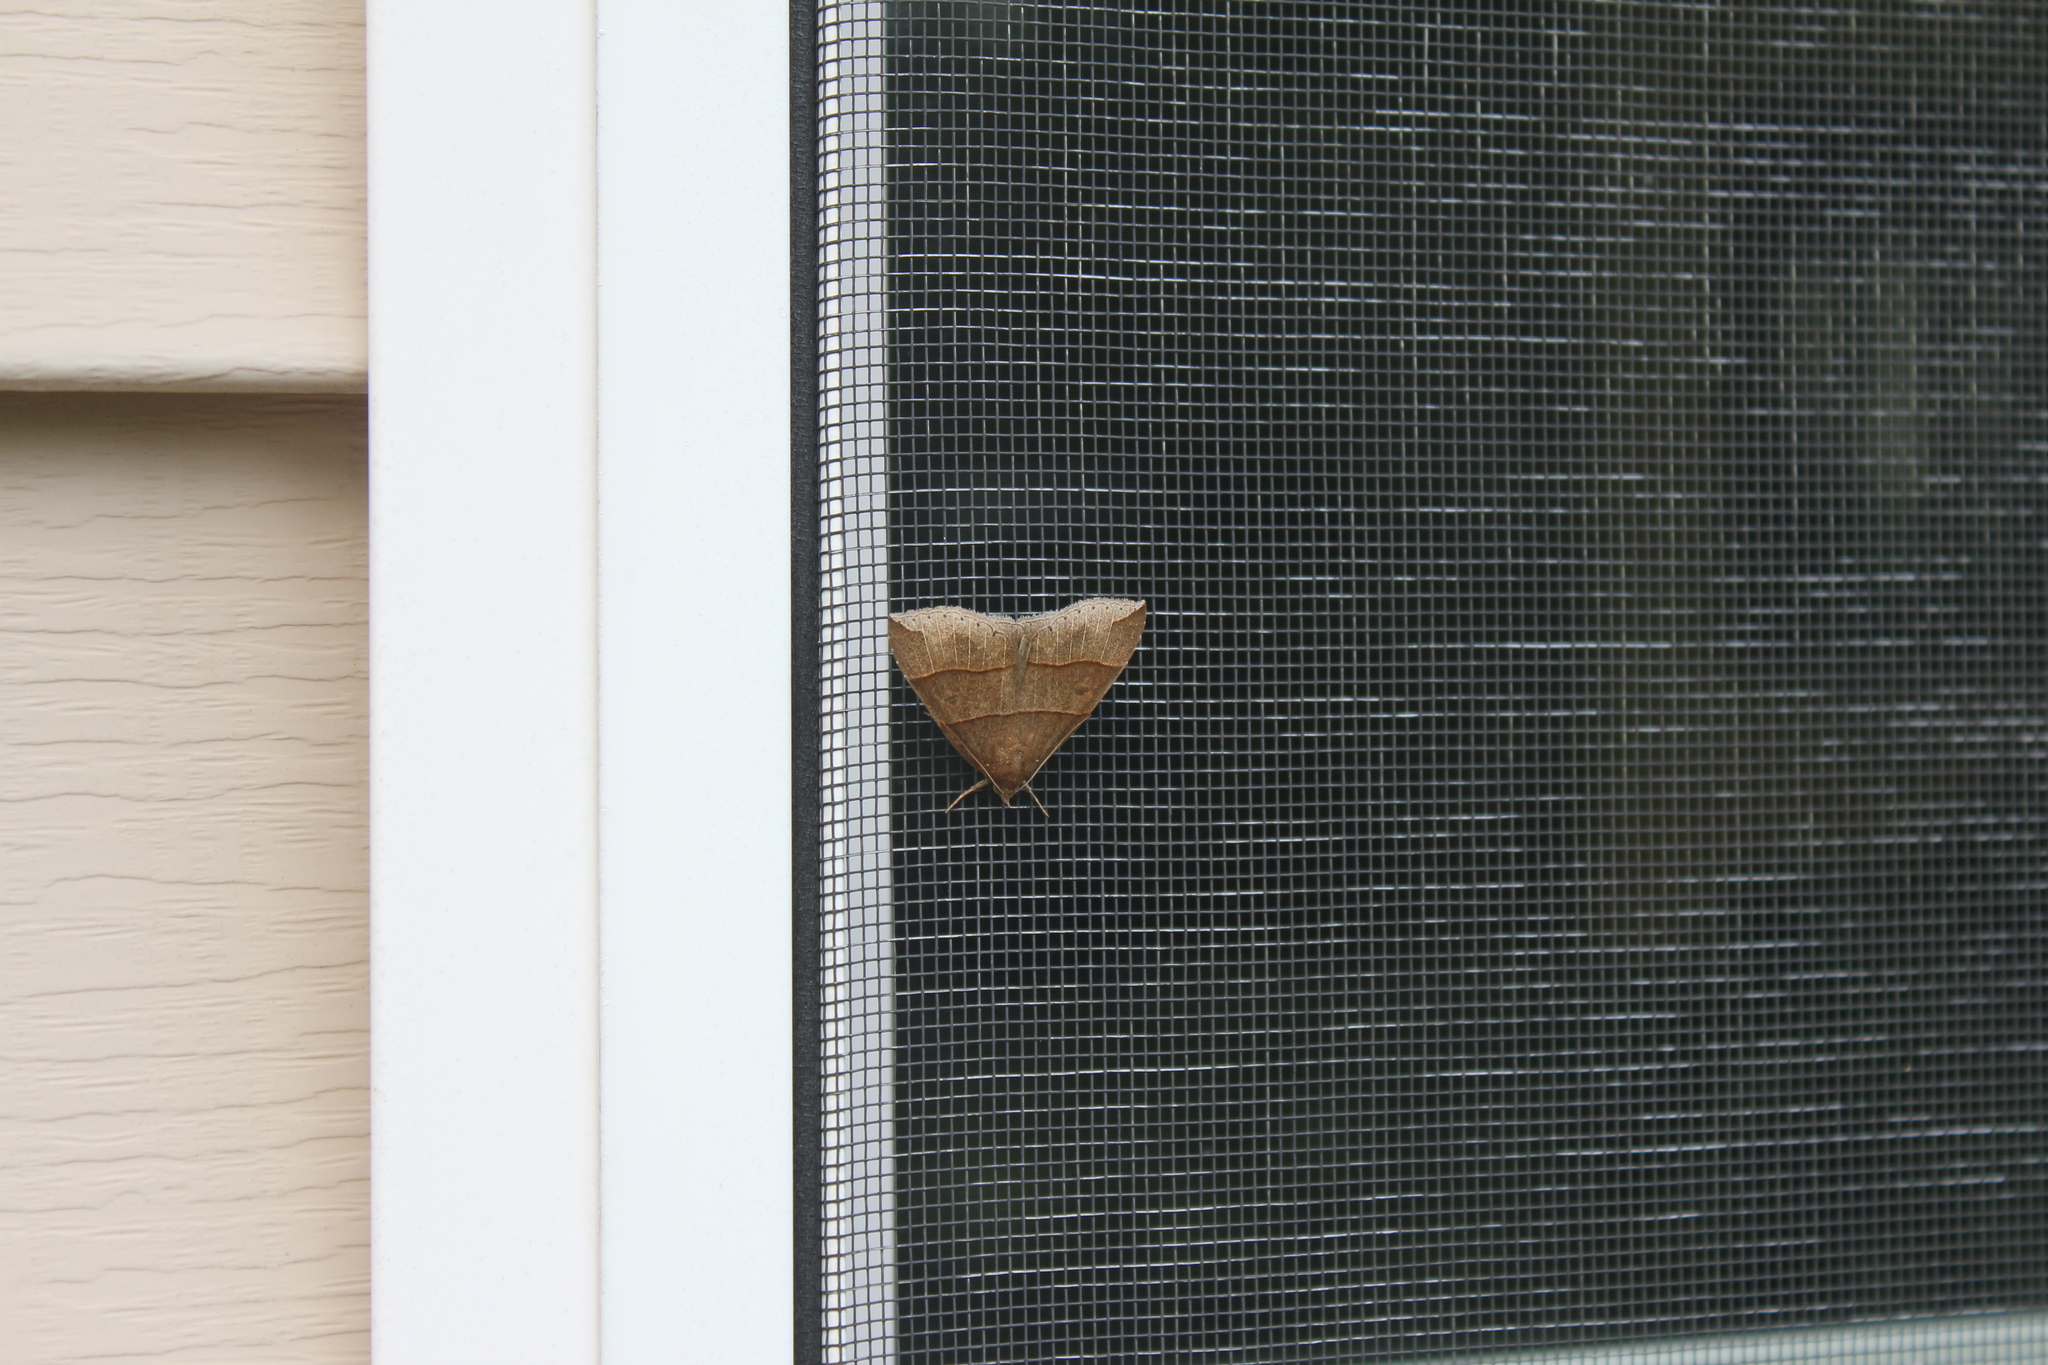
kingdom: Animalia
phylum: Arthropoda
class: Insecta
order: Lepidoptera
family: Erebidae
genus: Parallelia
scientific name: Parallelia bistriaris
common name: Maple looper moth
